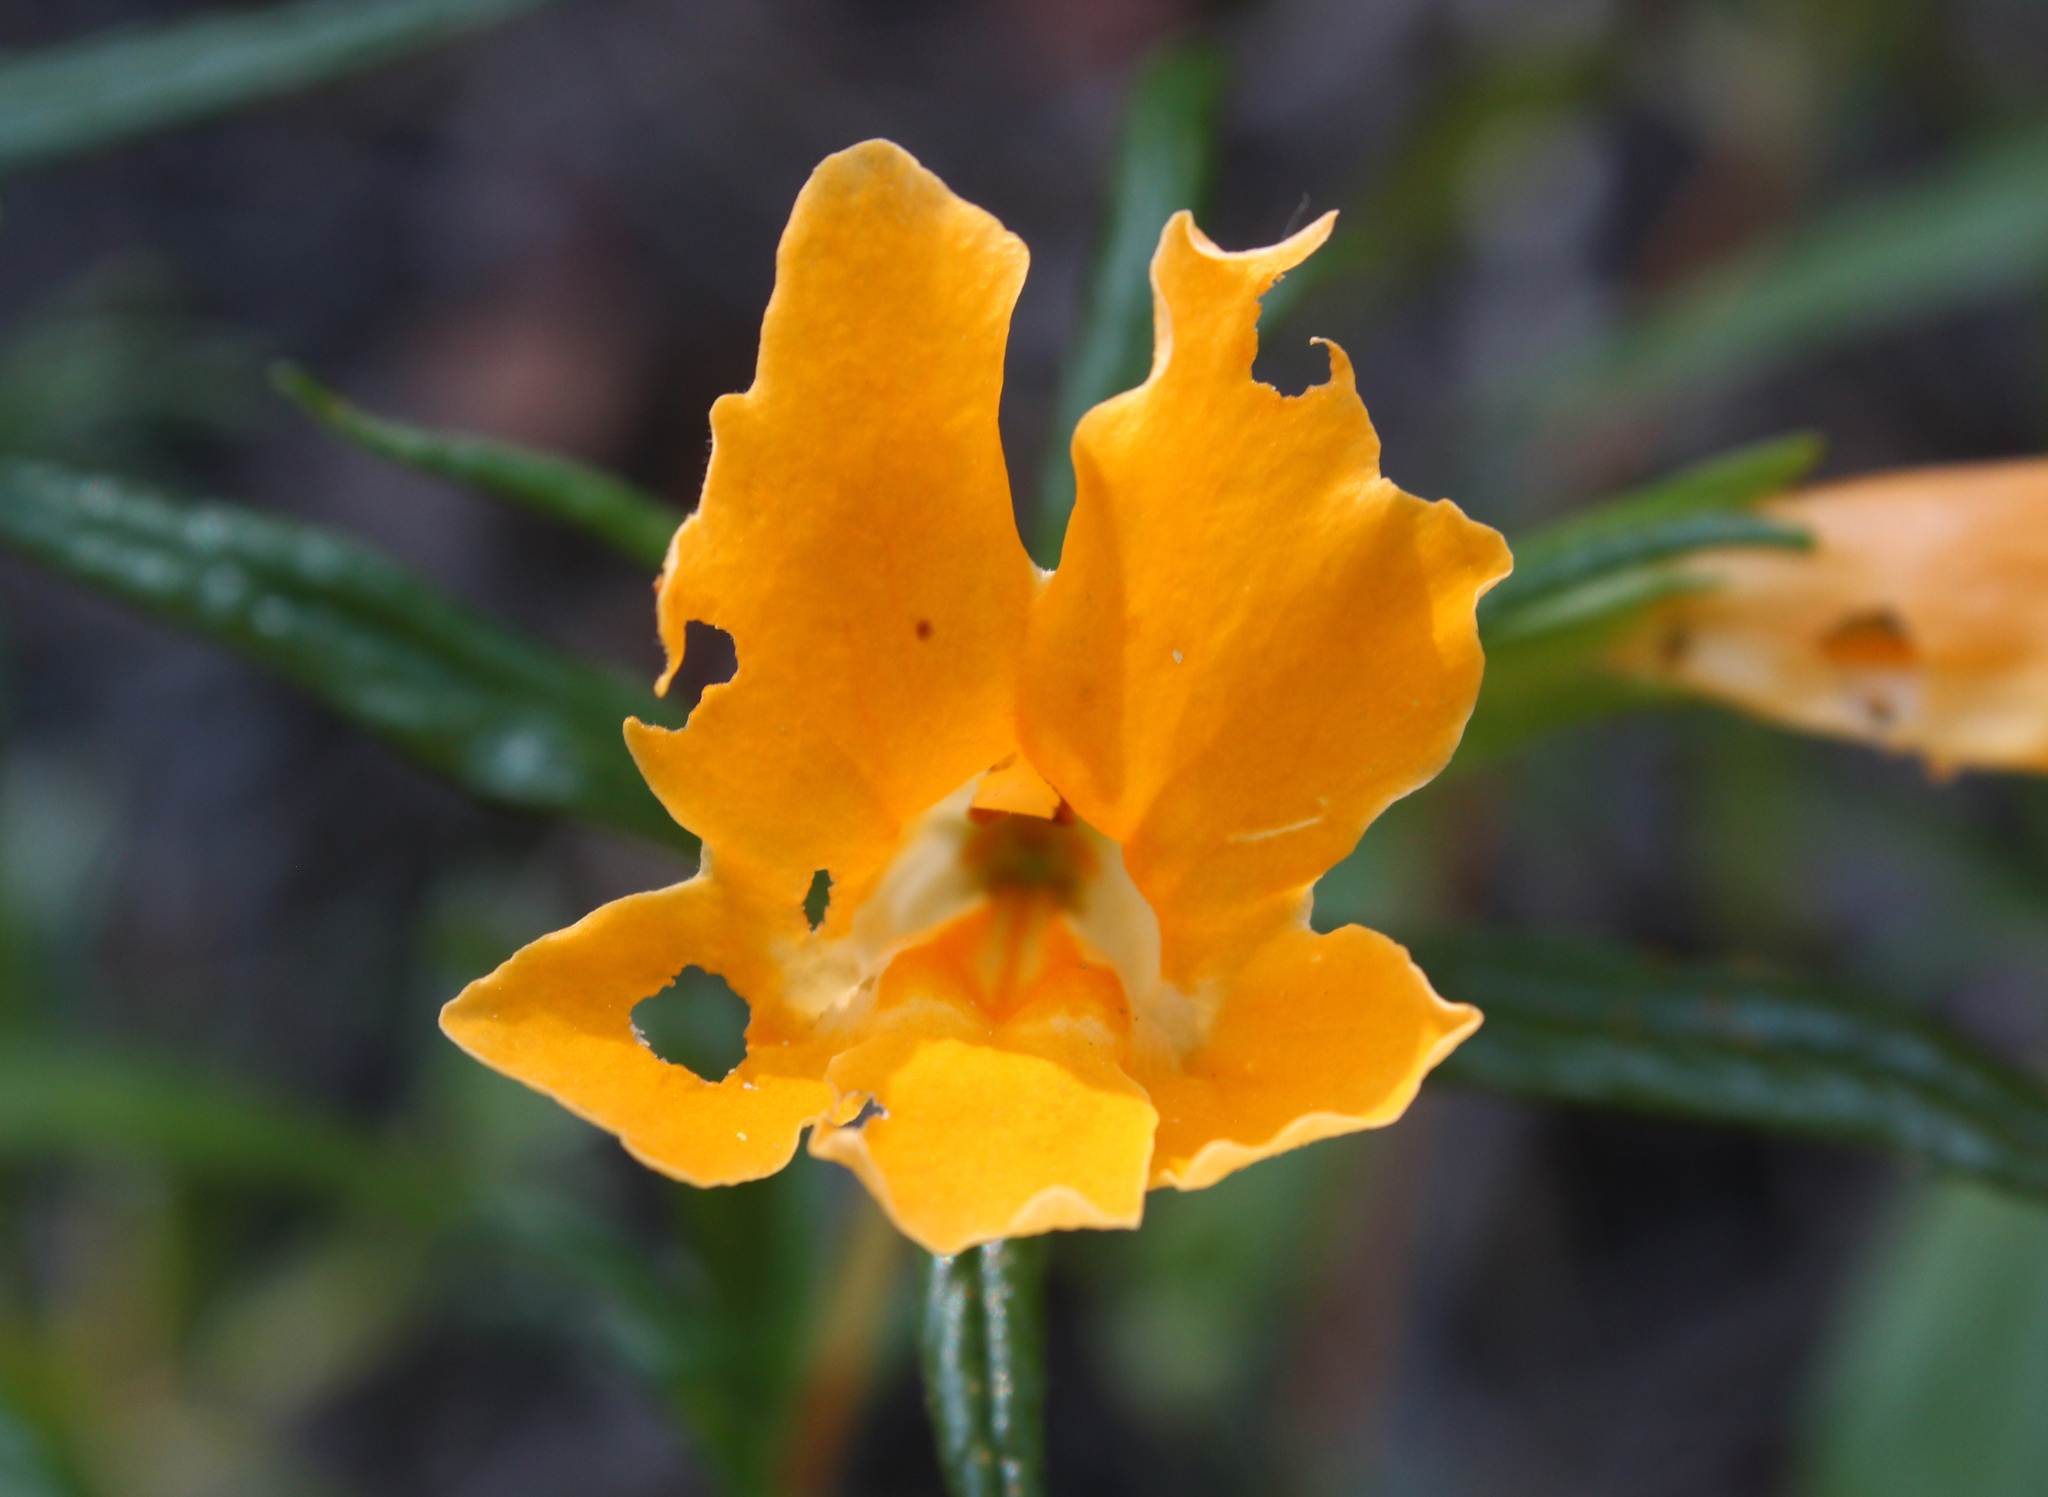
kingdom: Plantae
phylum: Tracheophyta
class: Magnoliopsida
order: Lamiales
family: Phrymaceae
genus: Diplacus
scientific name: Diplacus
